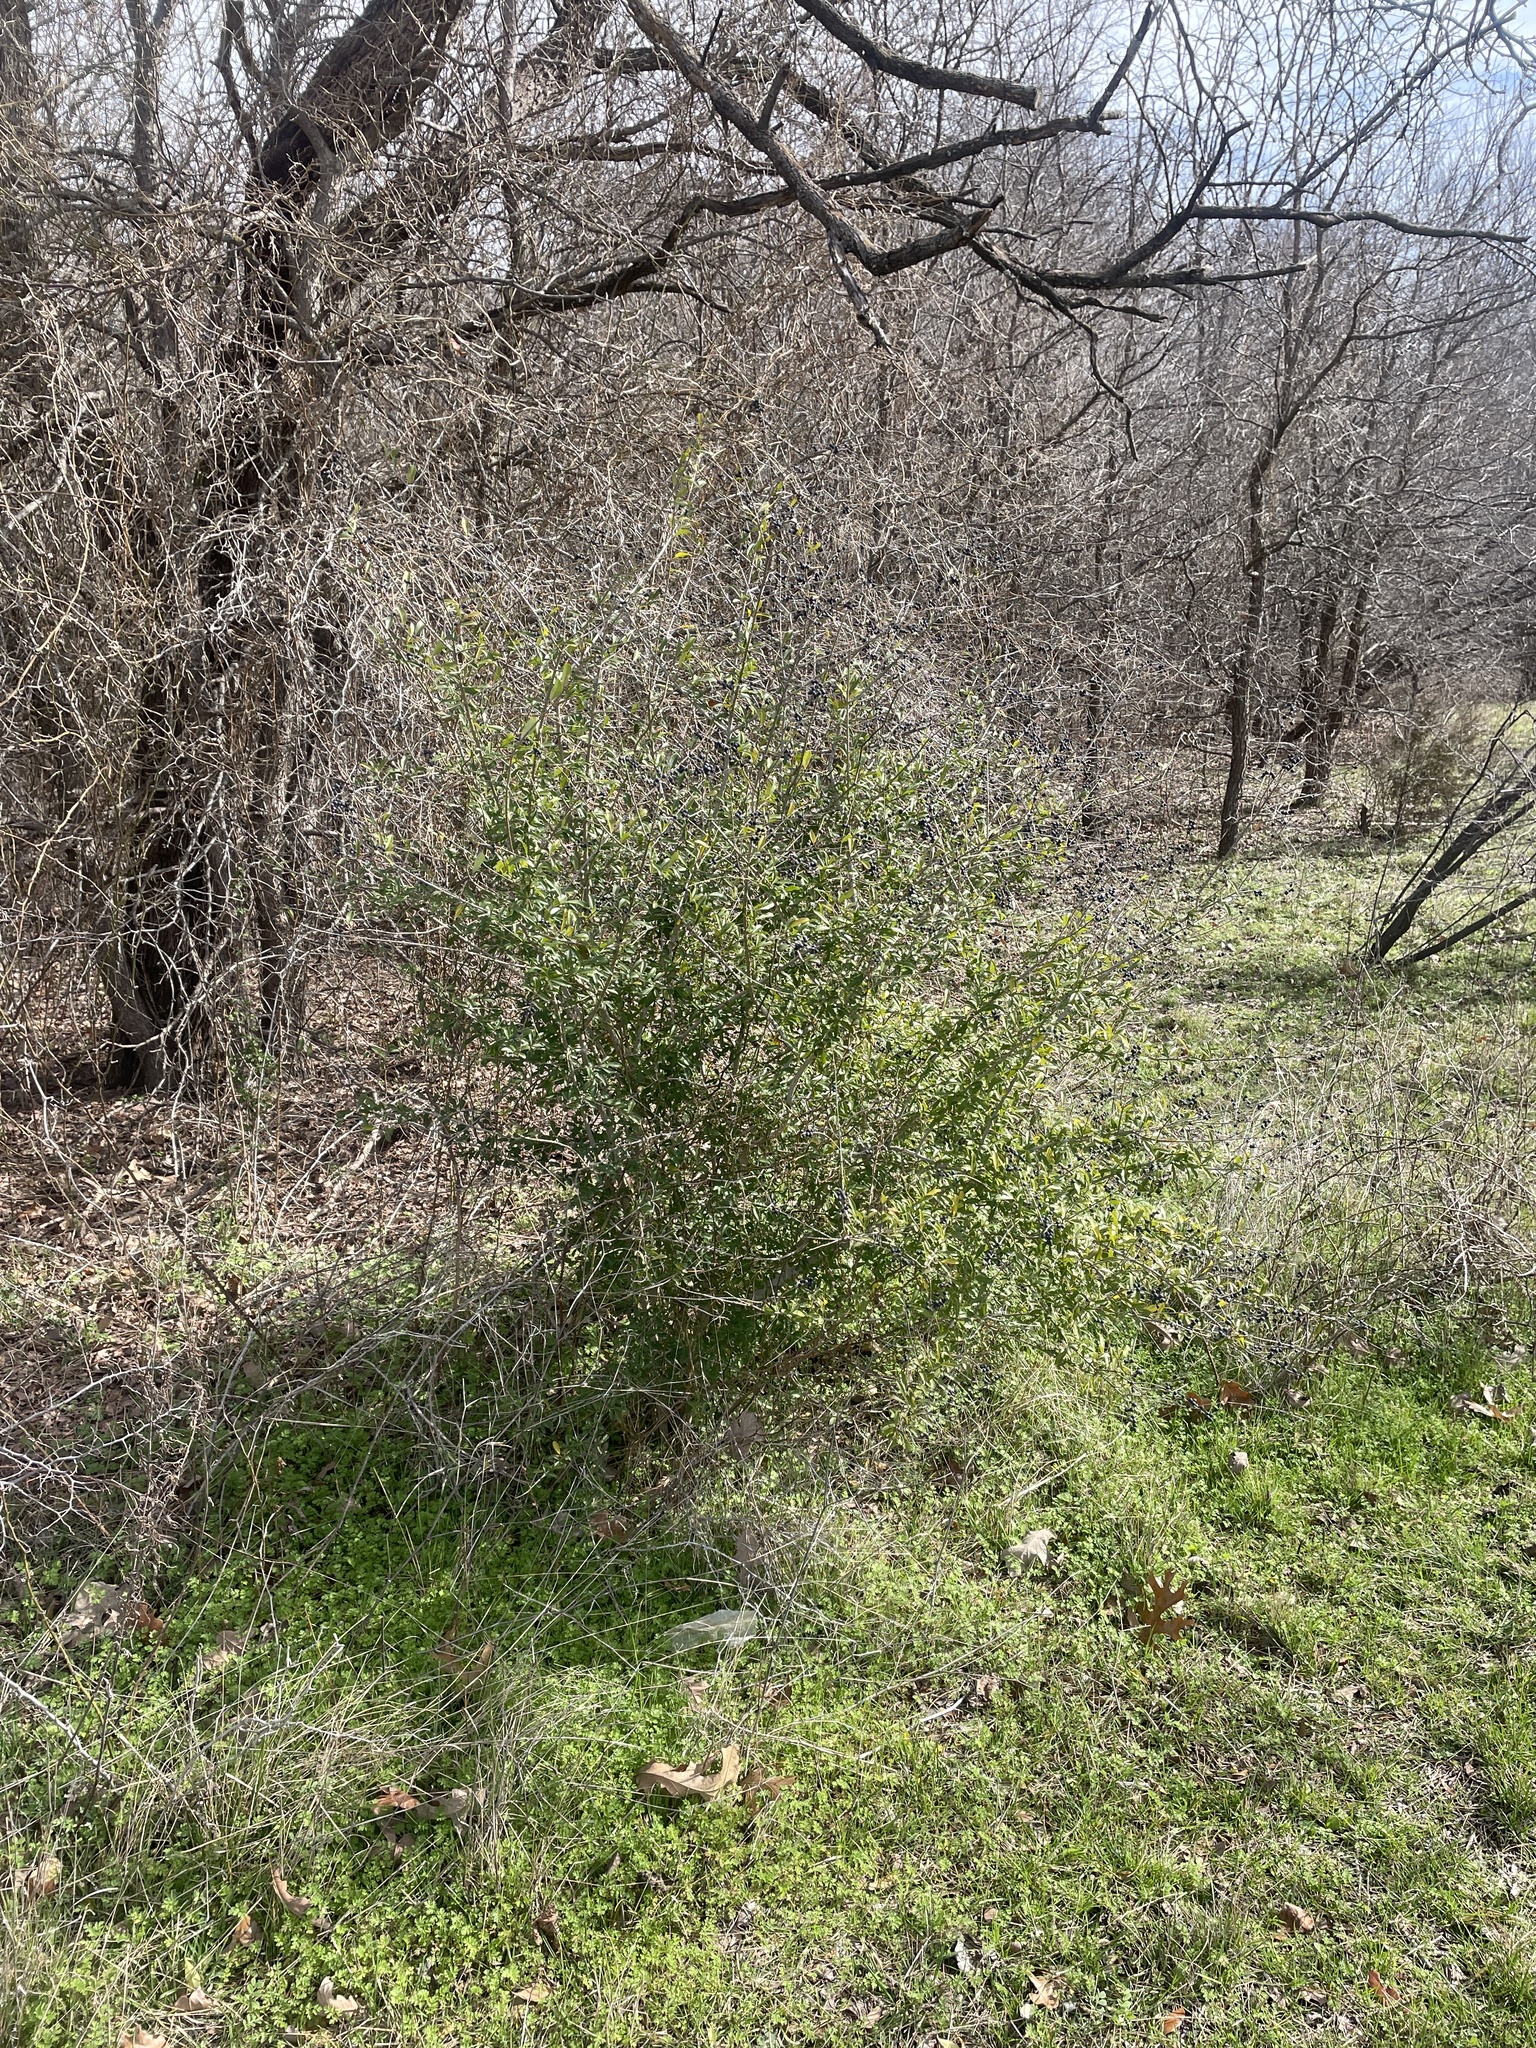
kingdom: Plantae
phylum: Tracheophyta
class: Magnoliopsida
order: Lamiales
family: Oleaceae
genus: Ligustrum
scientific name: Ligustrum quihoui
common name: Waxyleaf privet
